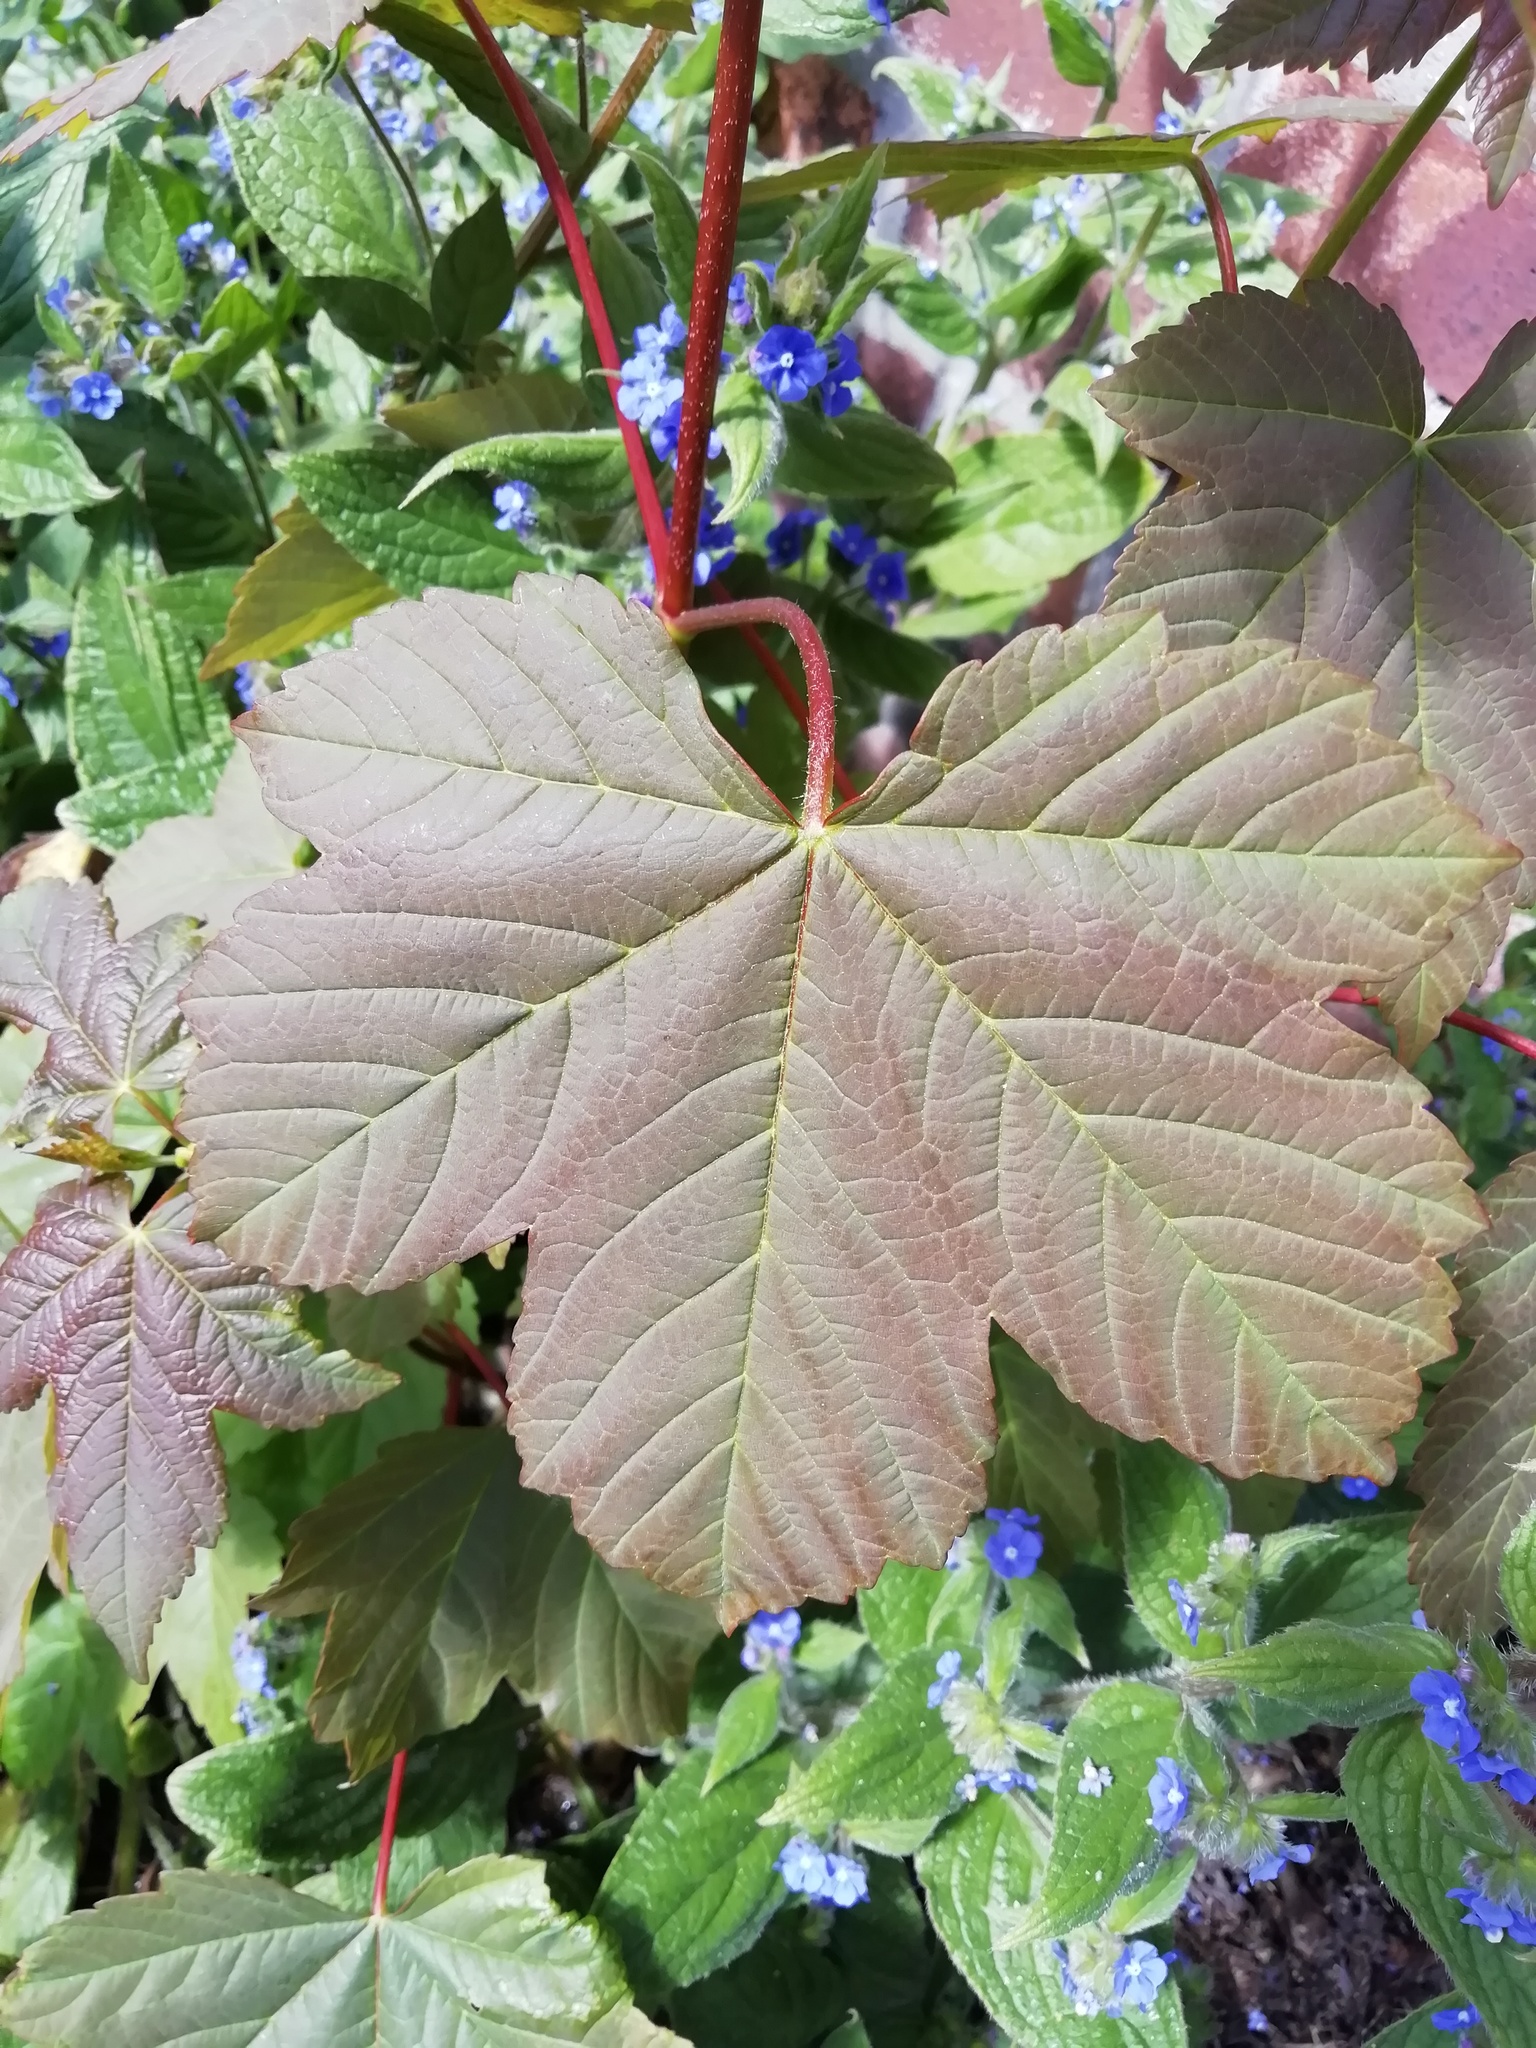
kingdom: Plantae
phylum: Tracheophyta
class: Magnoliopsida
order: Sapindales
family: Sapindaceae
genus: Acer
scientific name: Acer pseudoplatanus
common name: Sycamore
